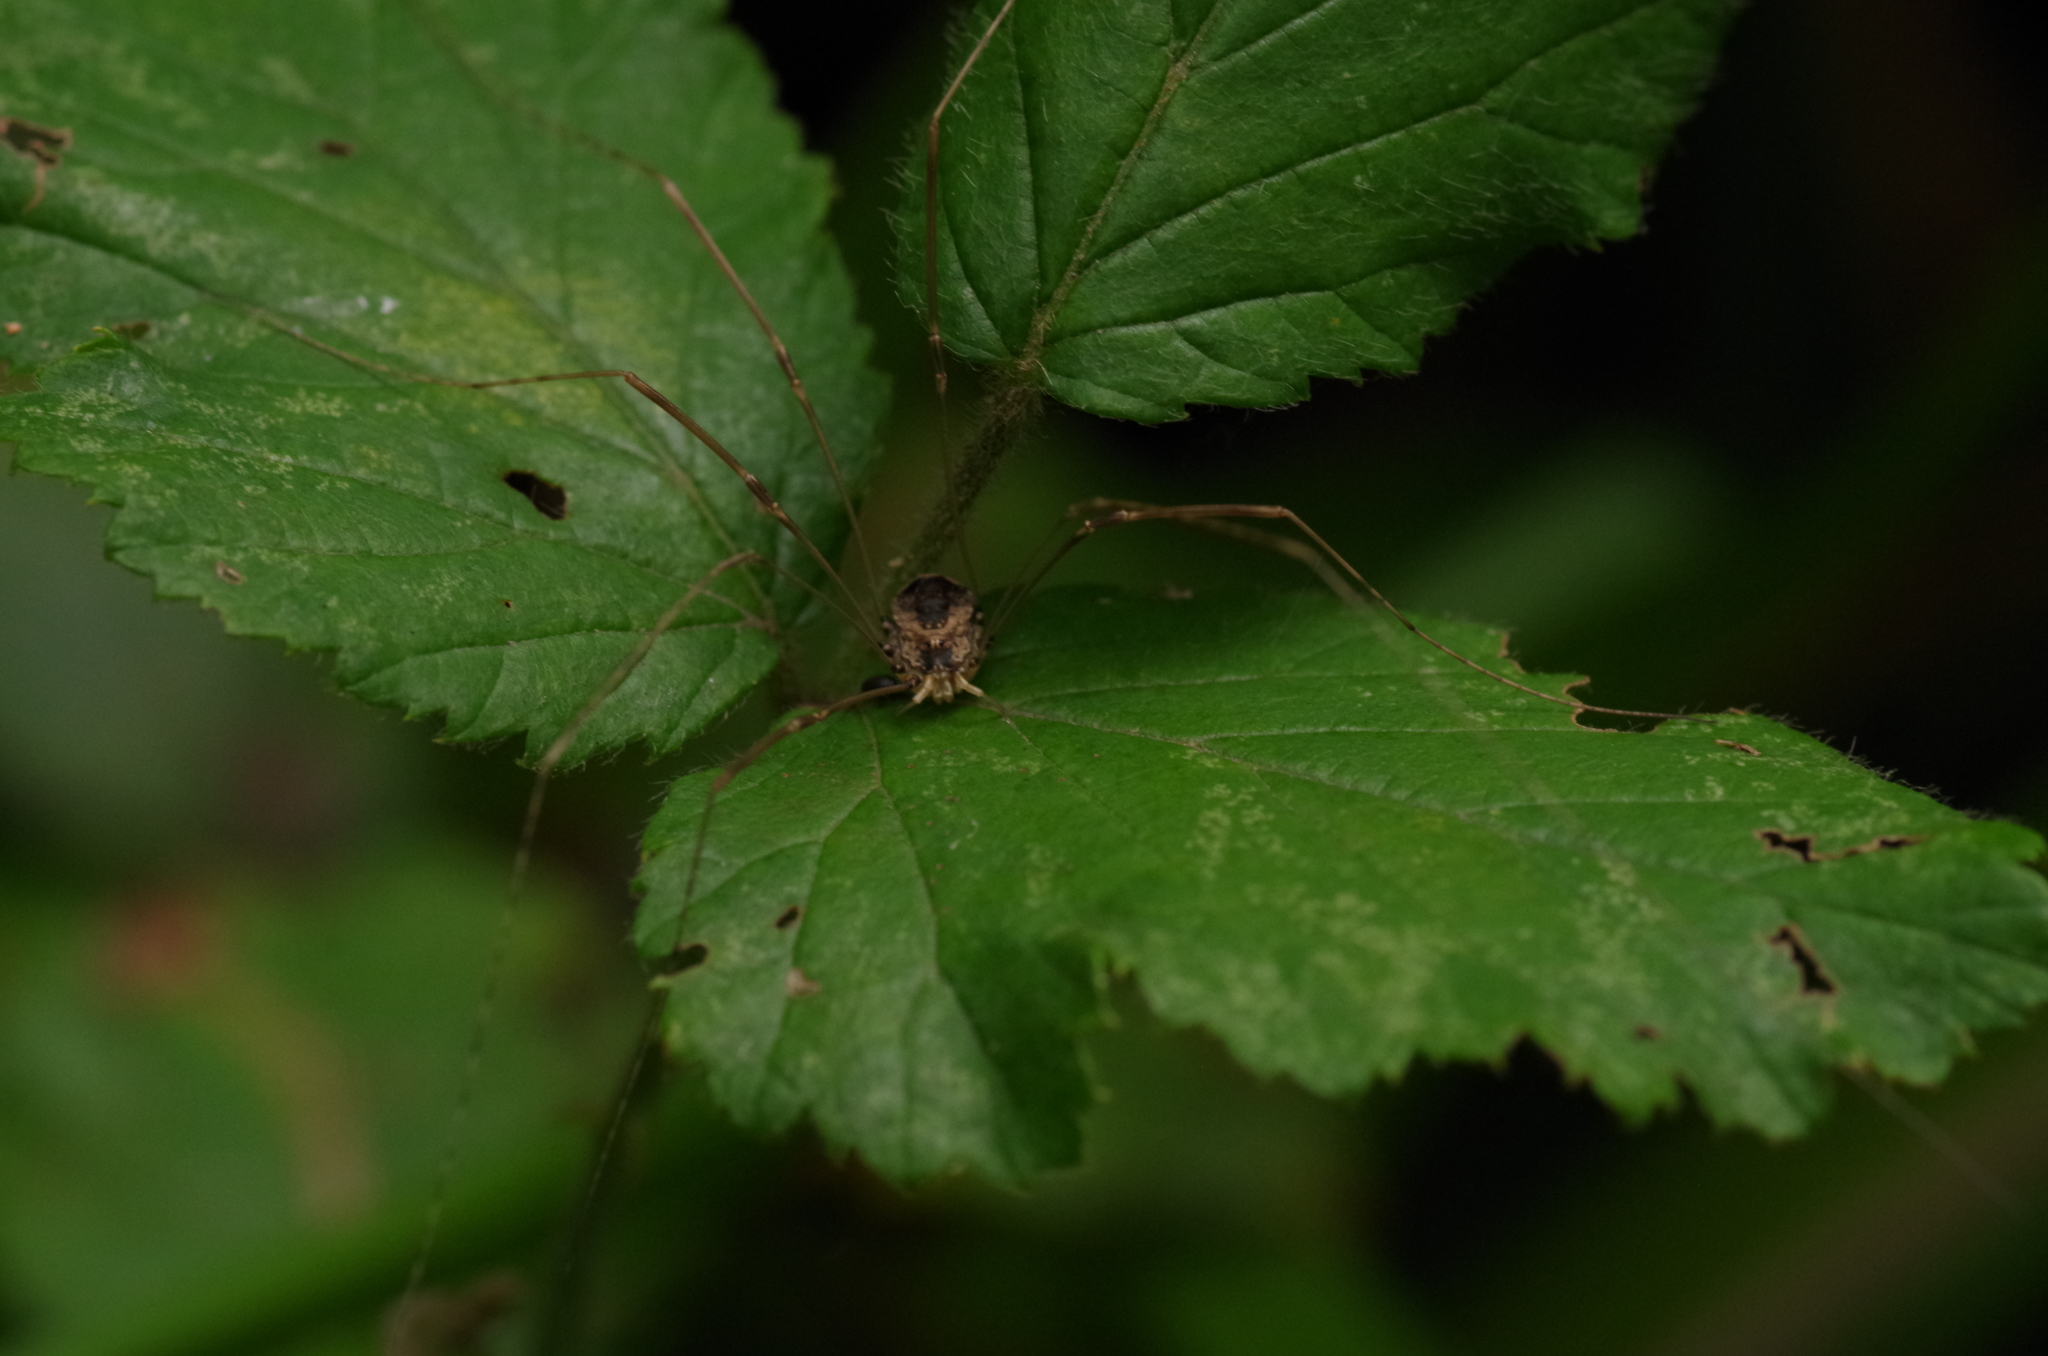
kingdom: Animalia
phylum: Arthropoda
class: Arachnida
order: Opiliones
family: Sclerosomatidae
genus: Leiobunum
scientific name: Leiobunum blackwalli
